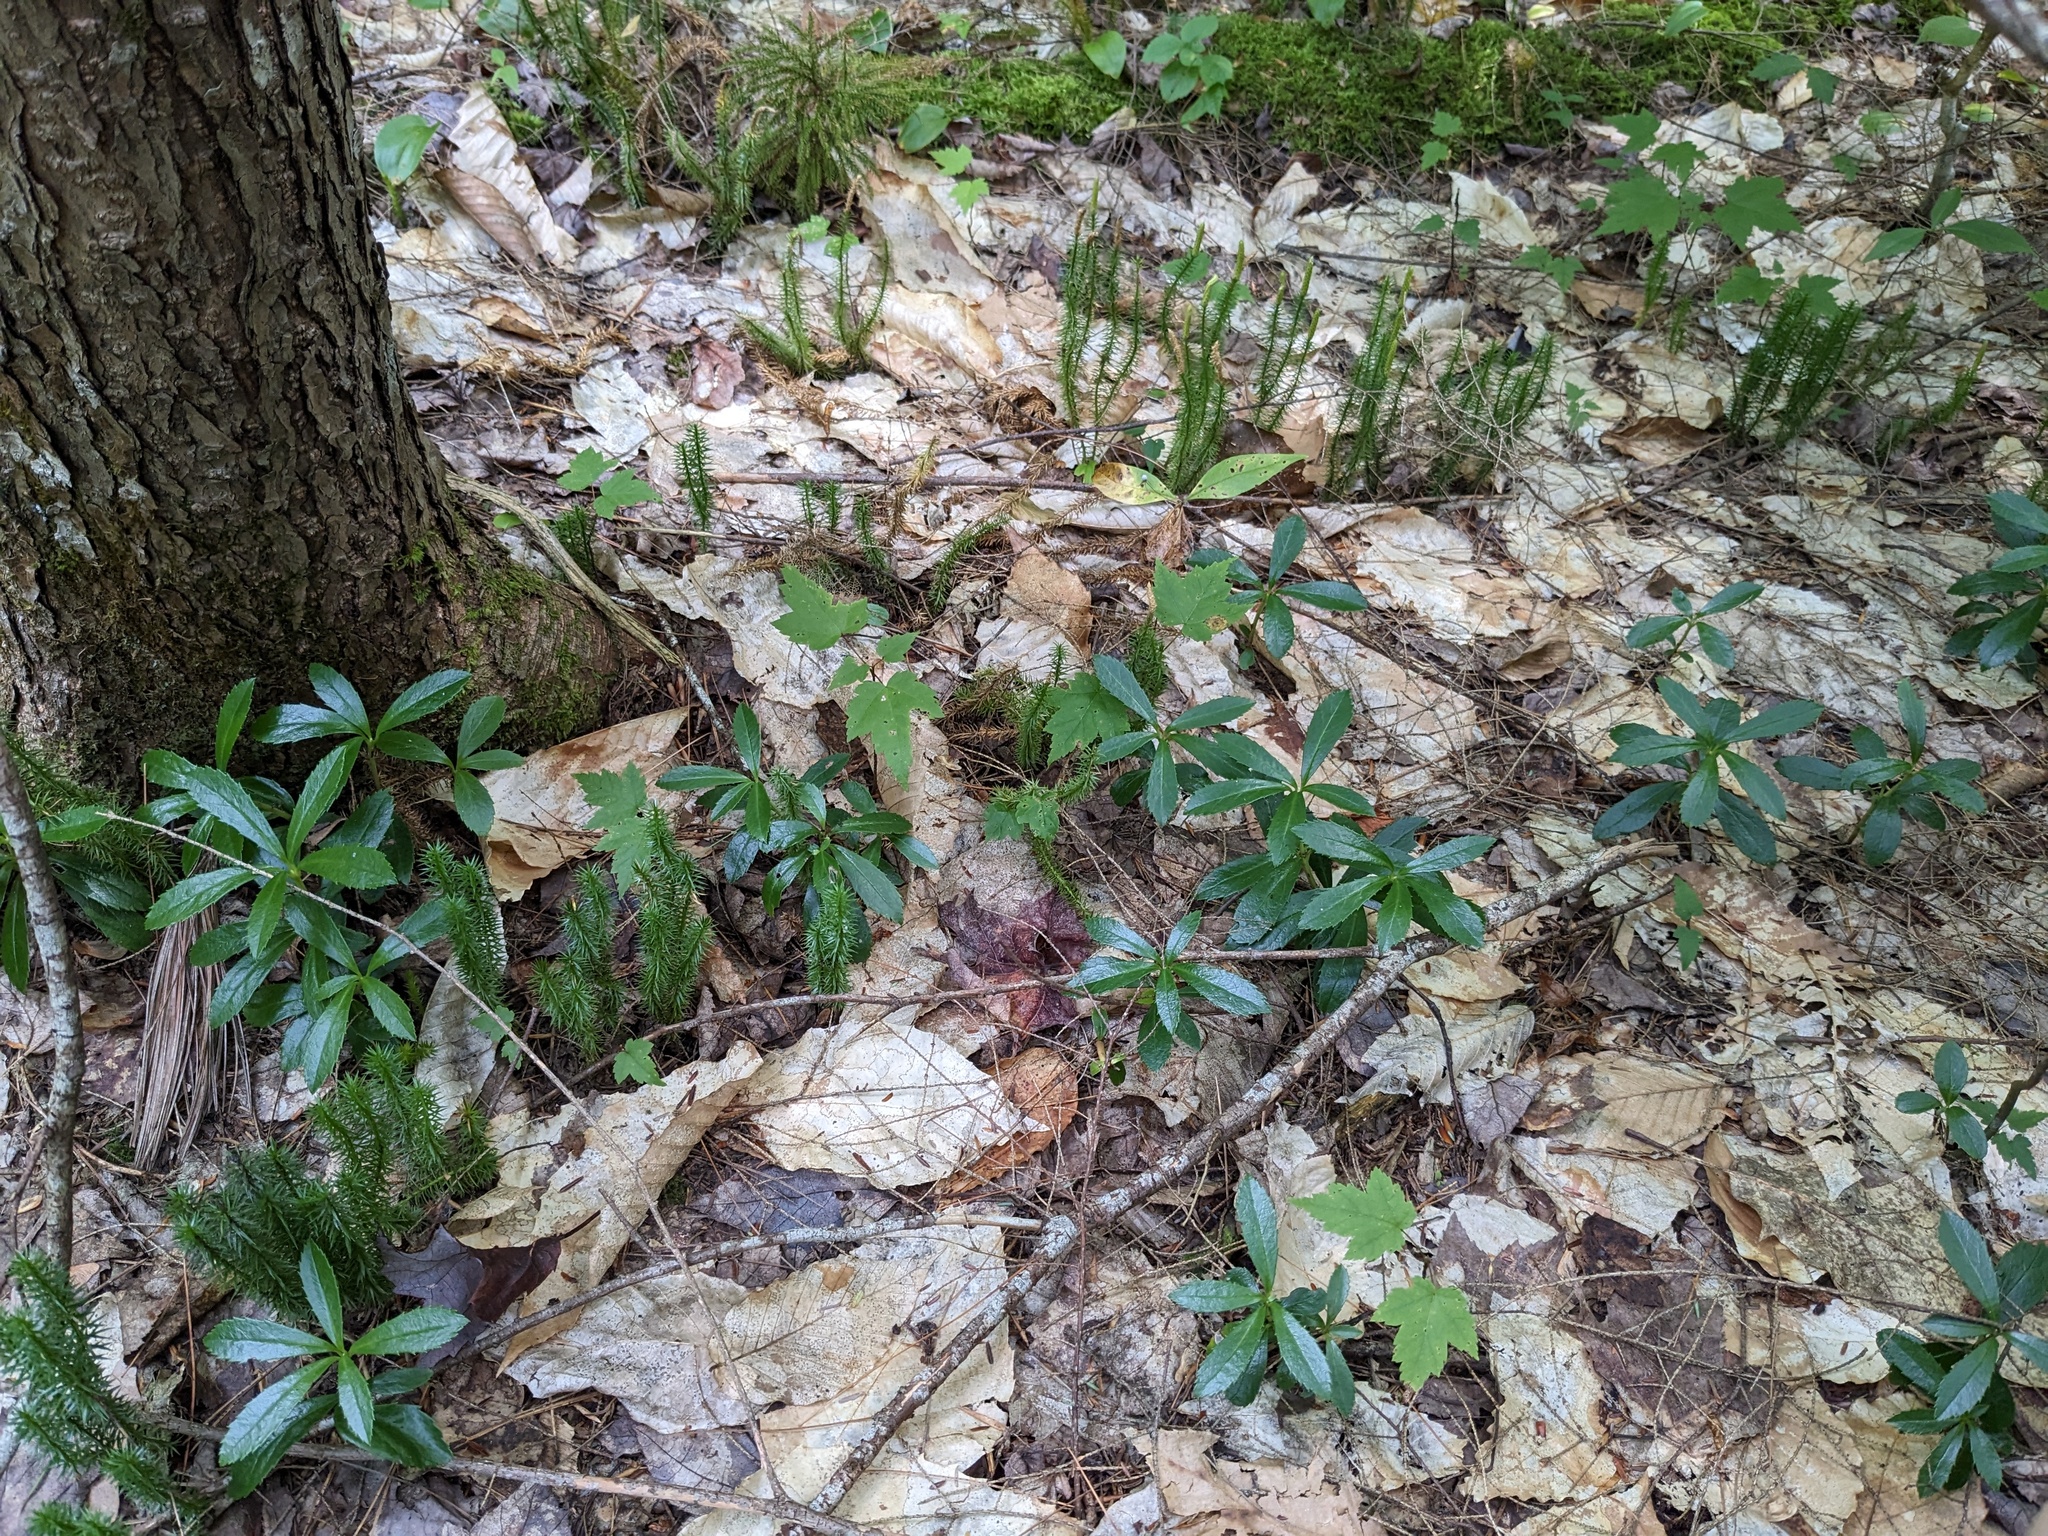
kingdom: Plantae
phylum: Tracheophyta
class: Magnoliopsida
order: Ericales
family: Ericaceae
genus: Chimaphila
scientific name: Chimaphila umbellata
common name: Pipsissewa
